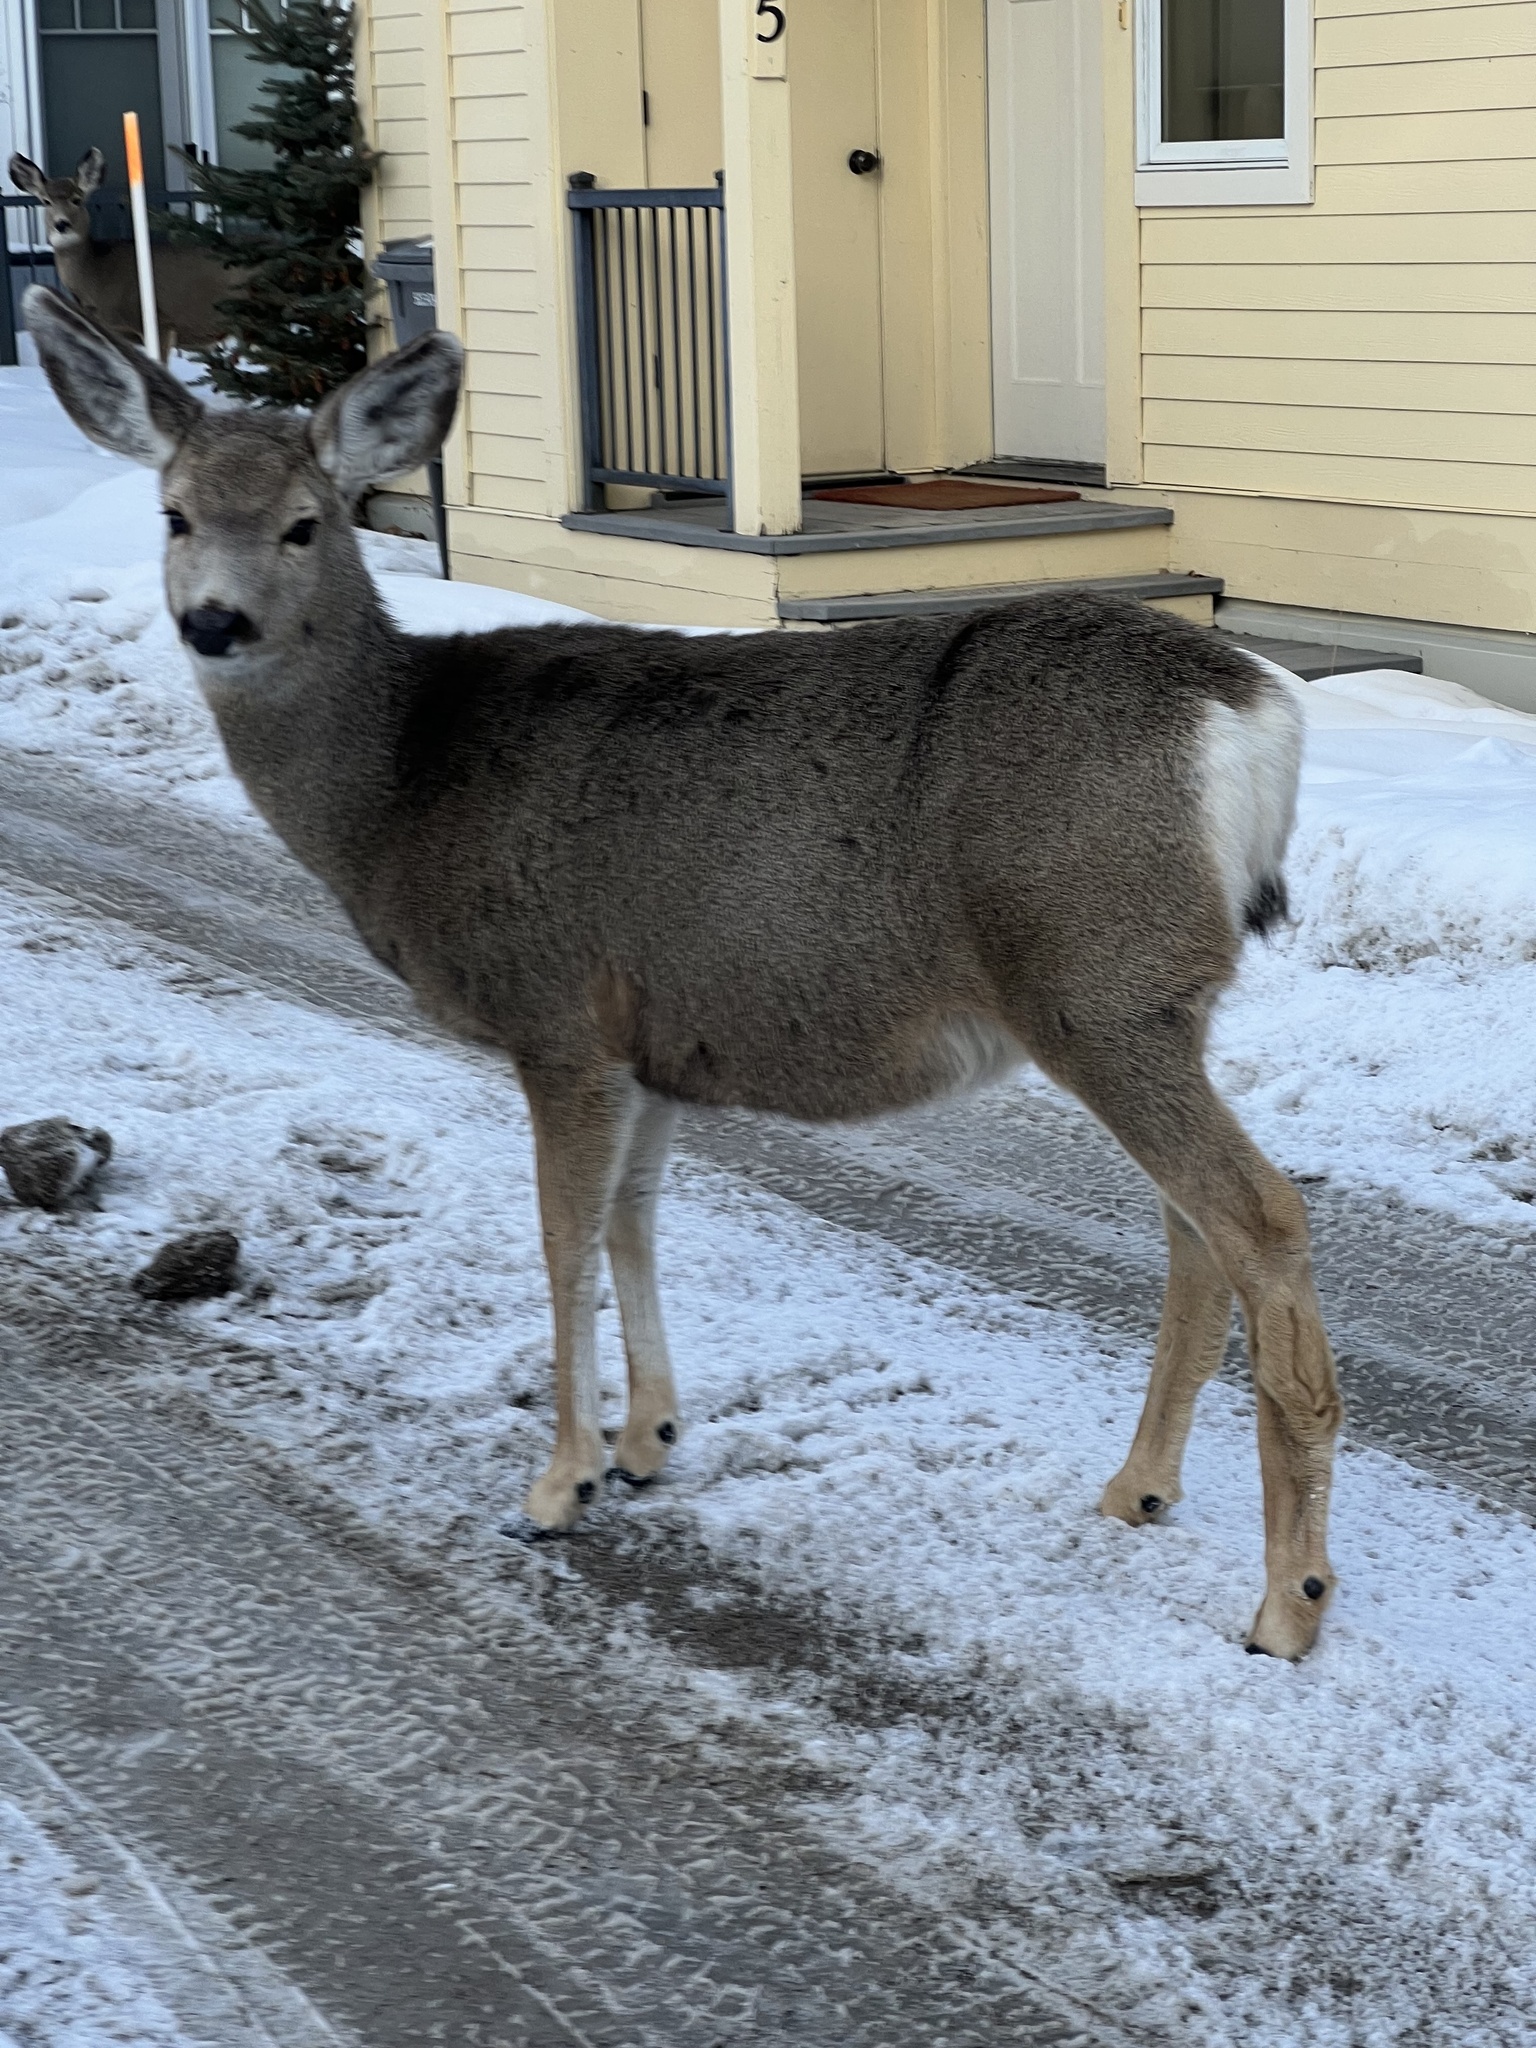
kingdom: Animalia
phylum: Chordata
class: Mammalia
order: Artiodactyla
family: Cervidae
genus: Odocoileus
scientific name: Odocoileus hemionus
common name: Mule deer
